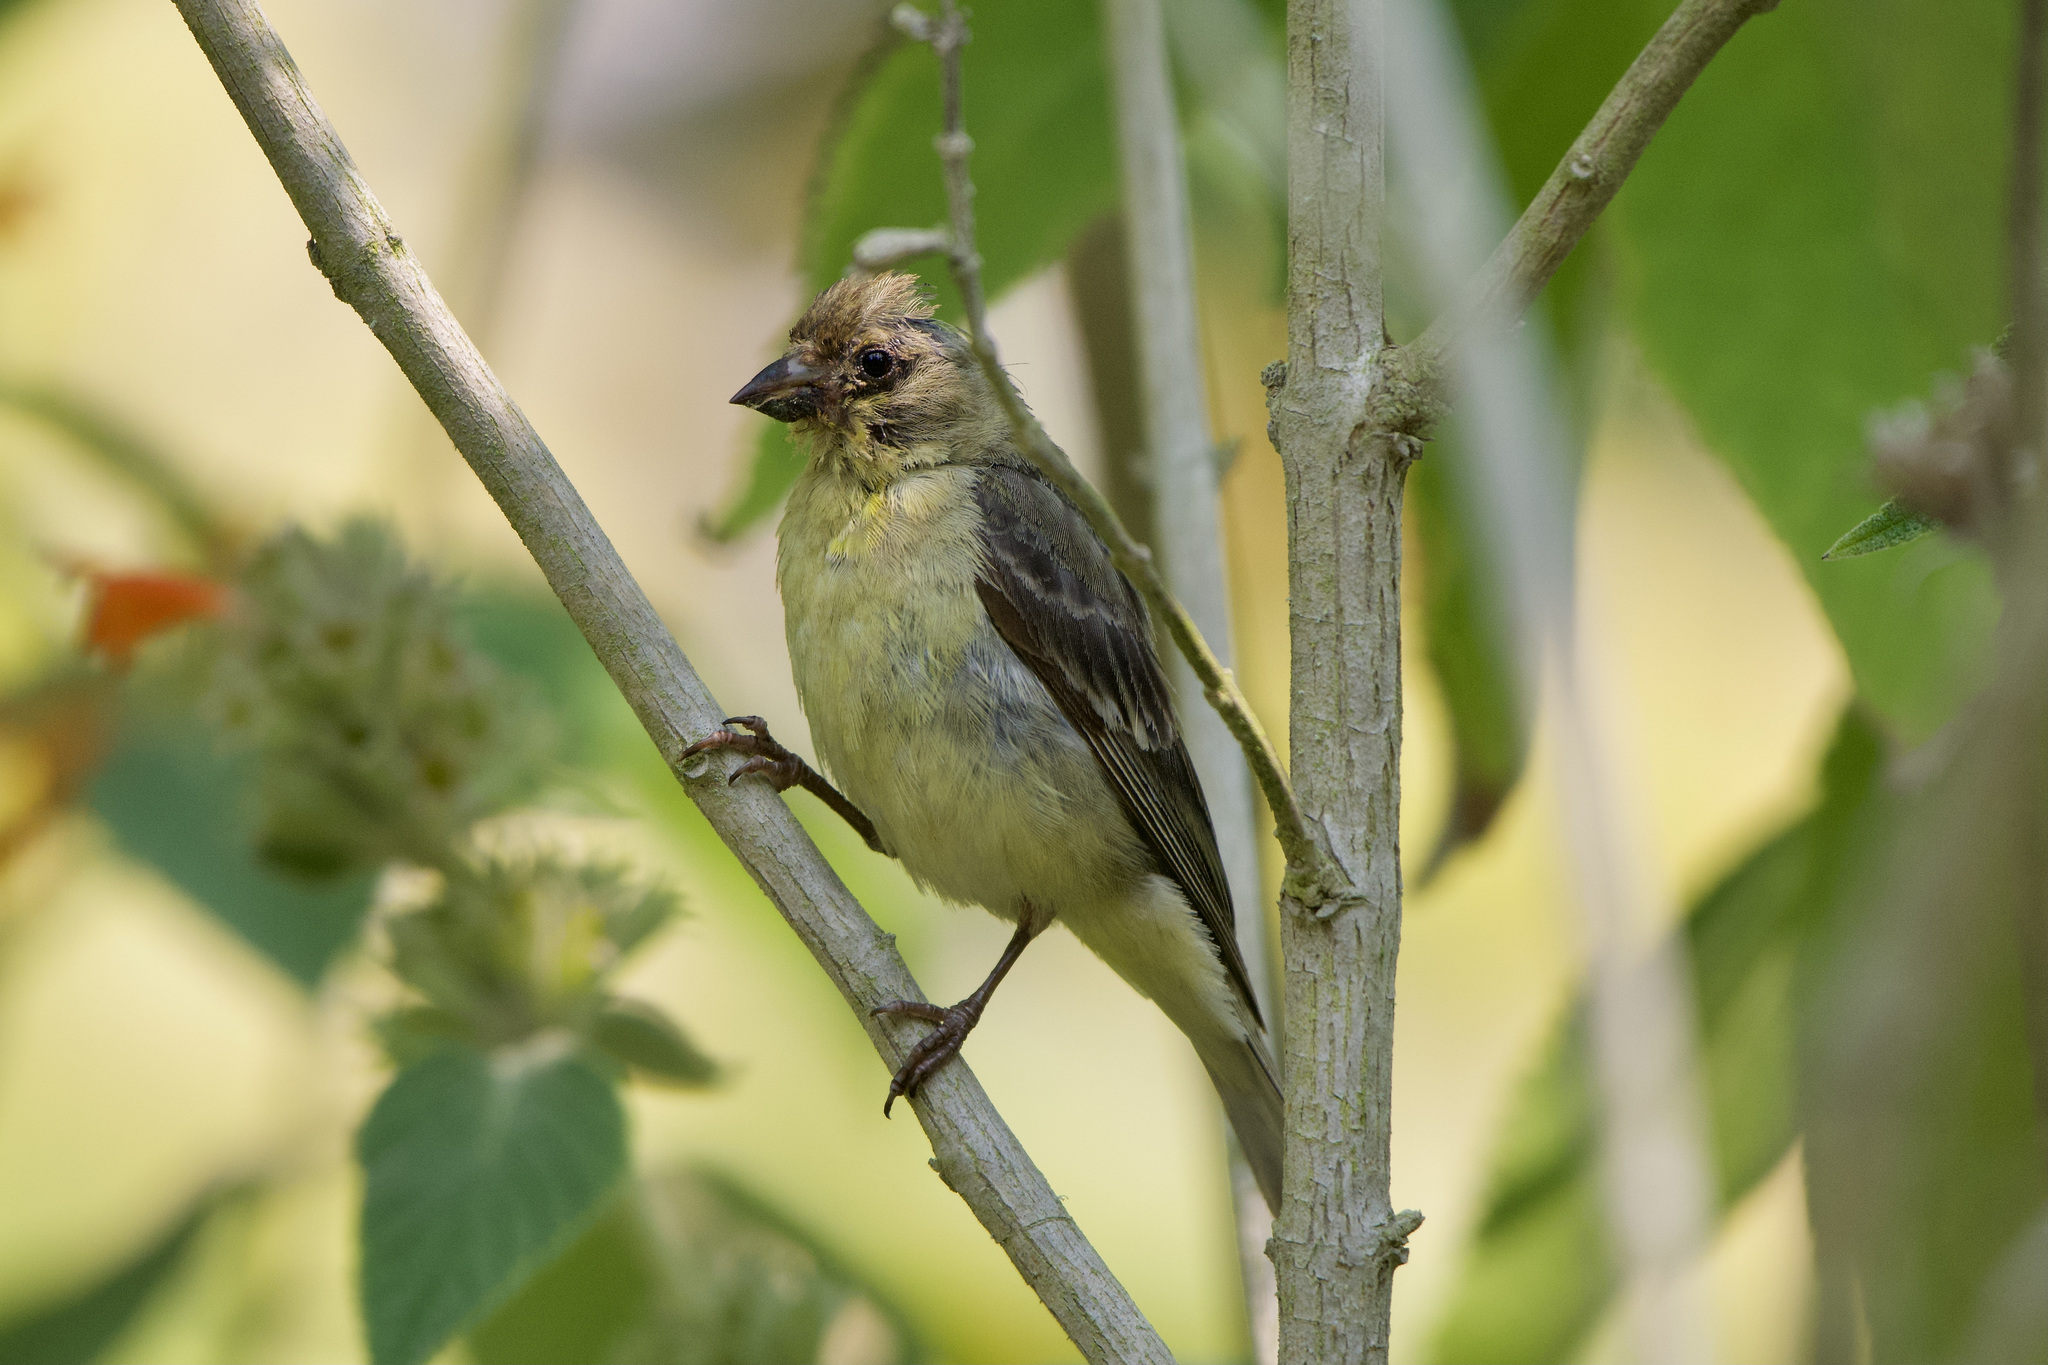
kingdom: Animalia
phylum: Chordata
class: Aves
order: Passeriformes
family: Fringillidae
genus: Spinus
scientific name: Spinus psaltria
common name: Lesser goldfinch
